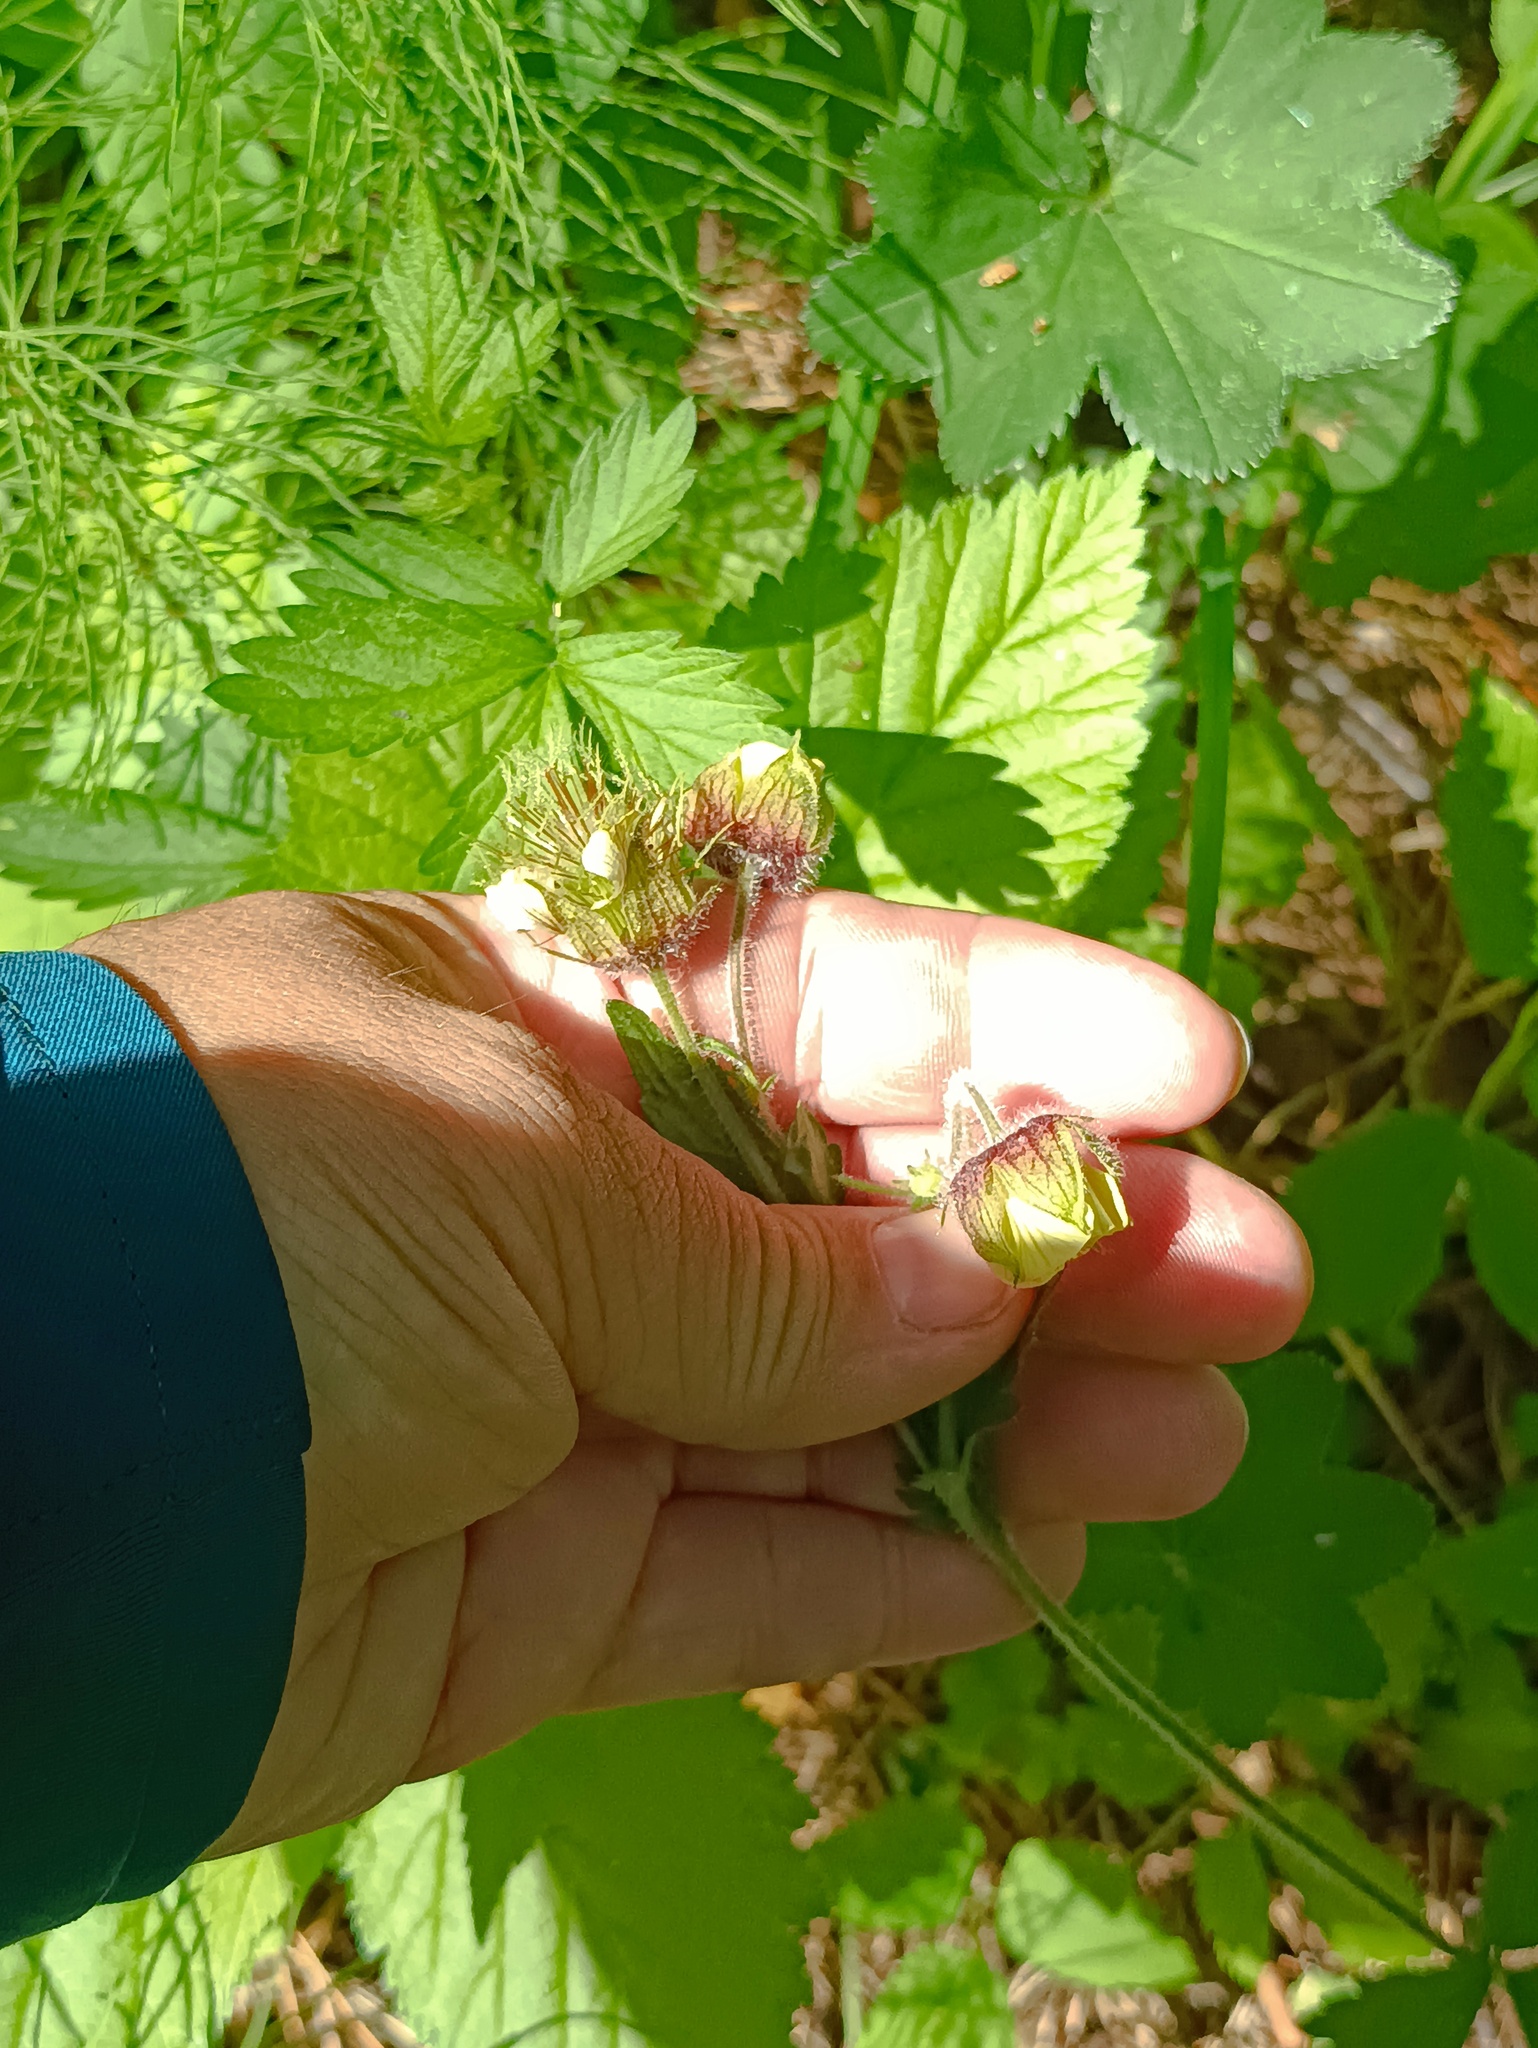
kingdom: Plantae
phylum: Tracheophyta
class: Magnoliopsida
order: Rosales
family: Rosaceae
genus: Geum
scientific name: Geum rivale
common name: Water avens
